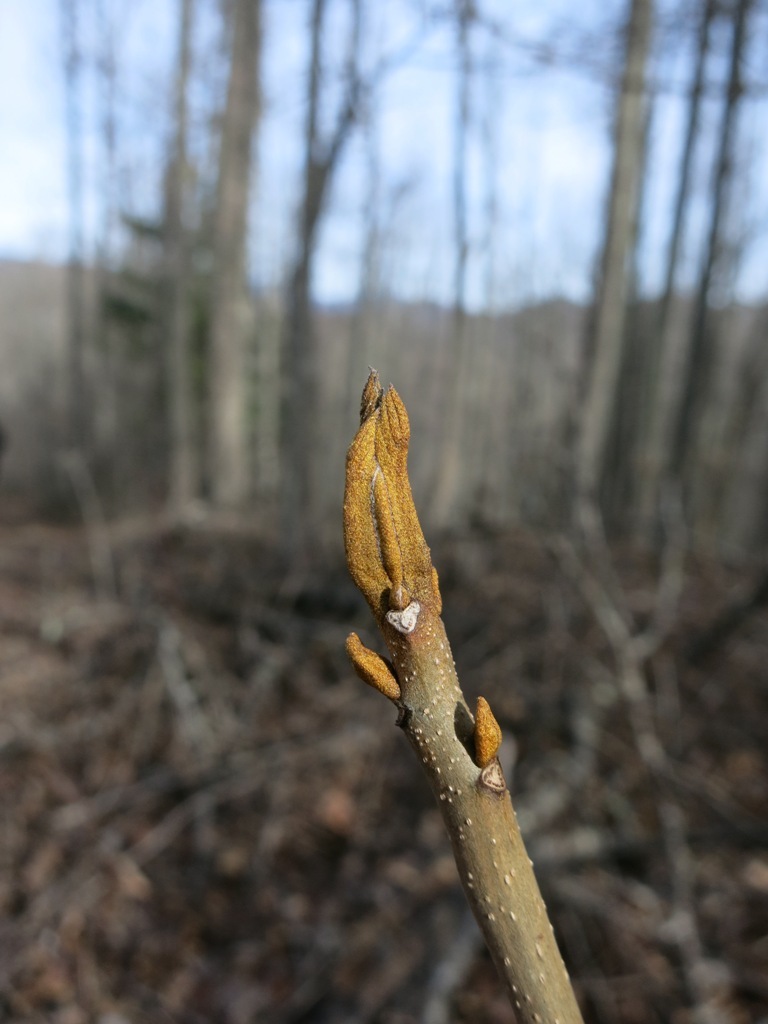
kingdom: Plantae
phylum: Tracheophyta
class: Magnoliopsida
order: Fagales
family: Juglandaceae
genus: Carya
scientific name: Carya cordiformis
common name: Bitternut hickory
